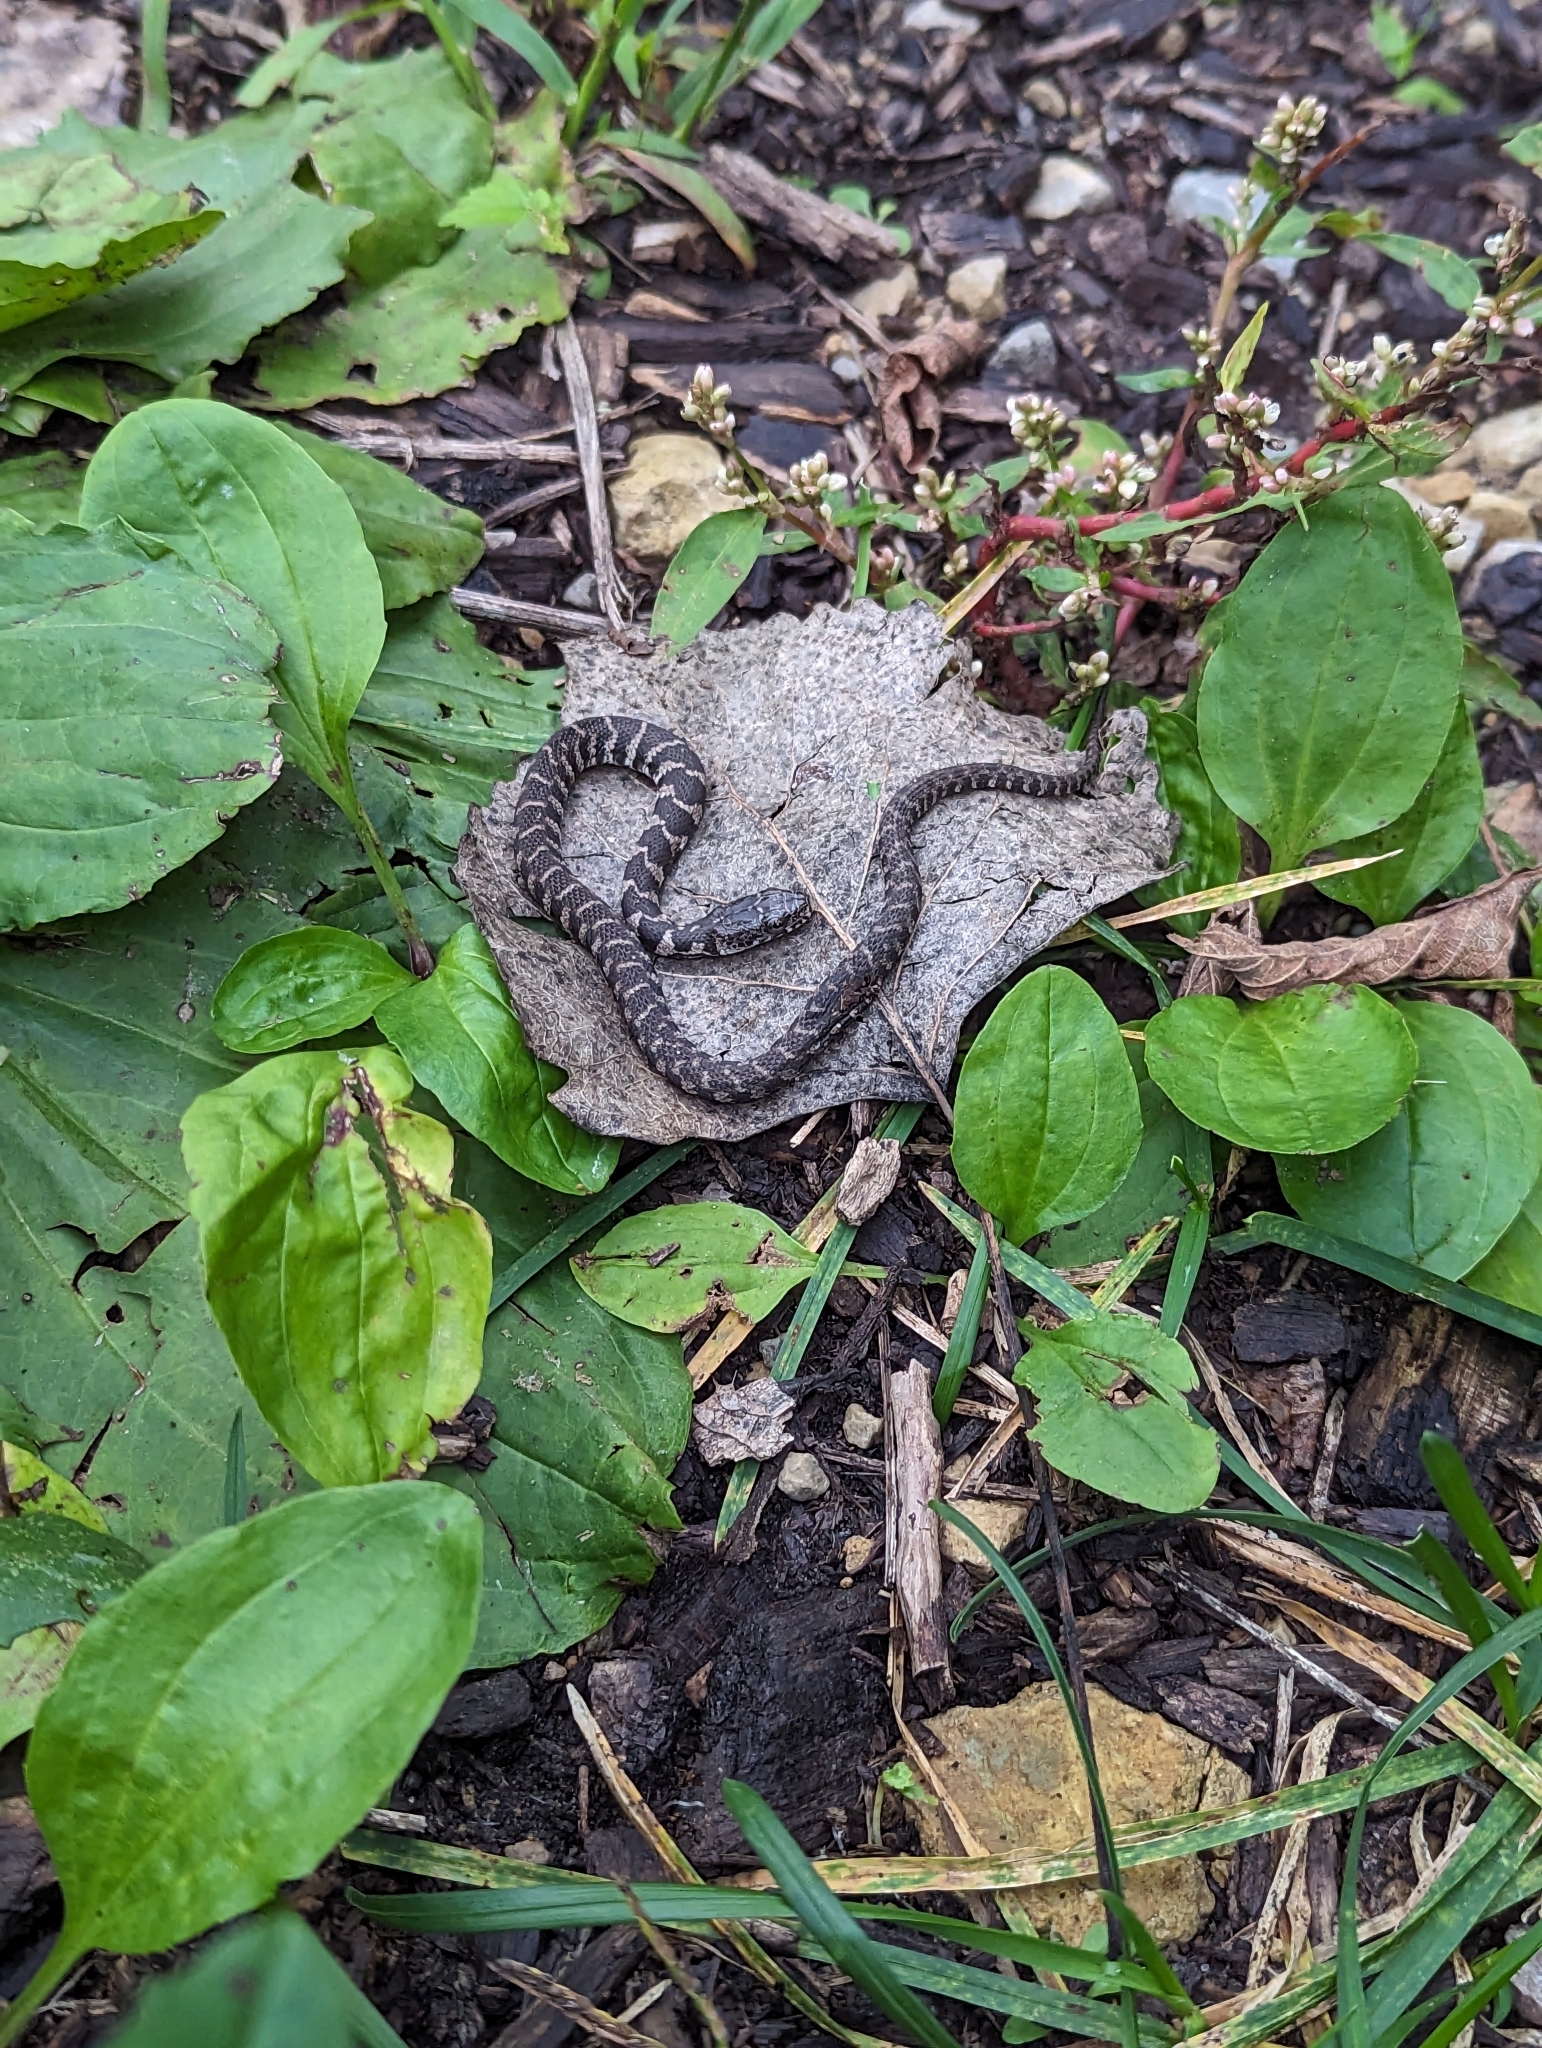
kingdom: Animalia
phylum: Chordata
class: Squamata
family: Colubridae
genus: Nerodia
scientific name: Nerodia sipedon
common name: Northern water snake
